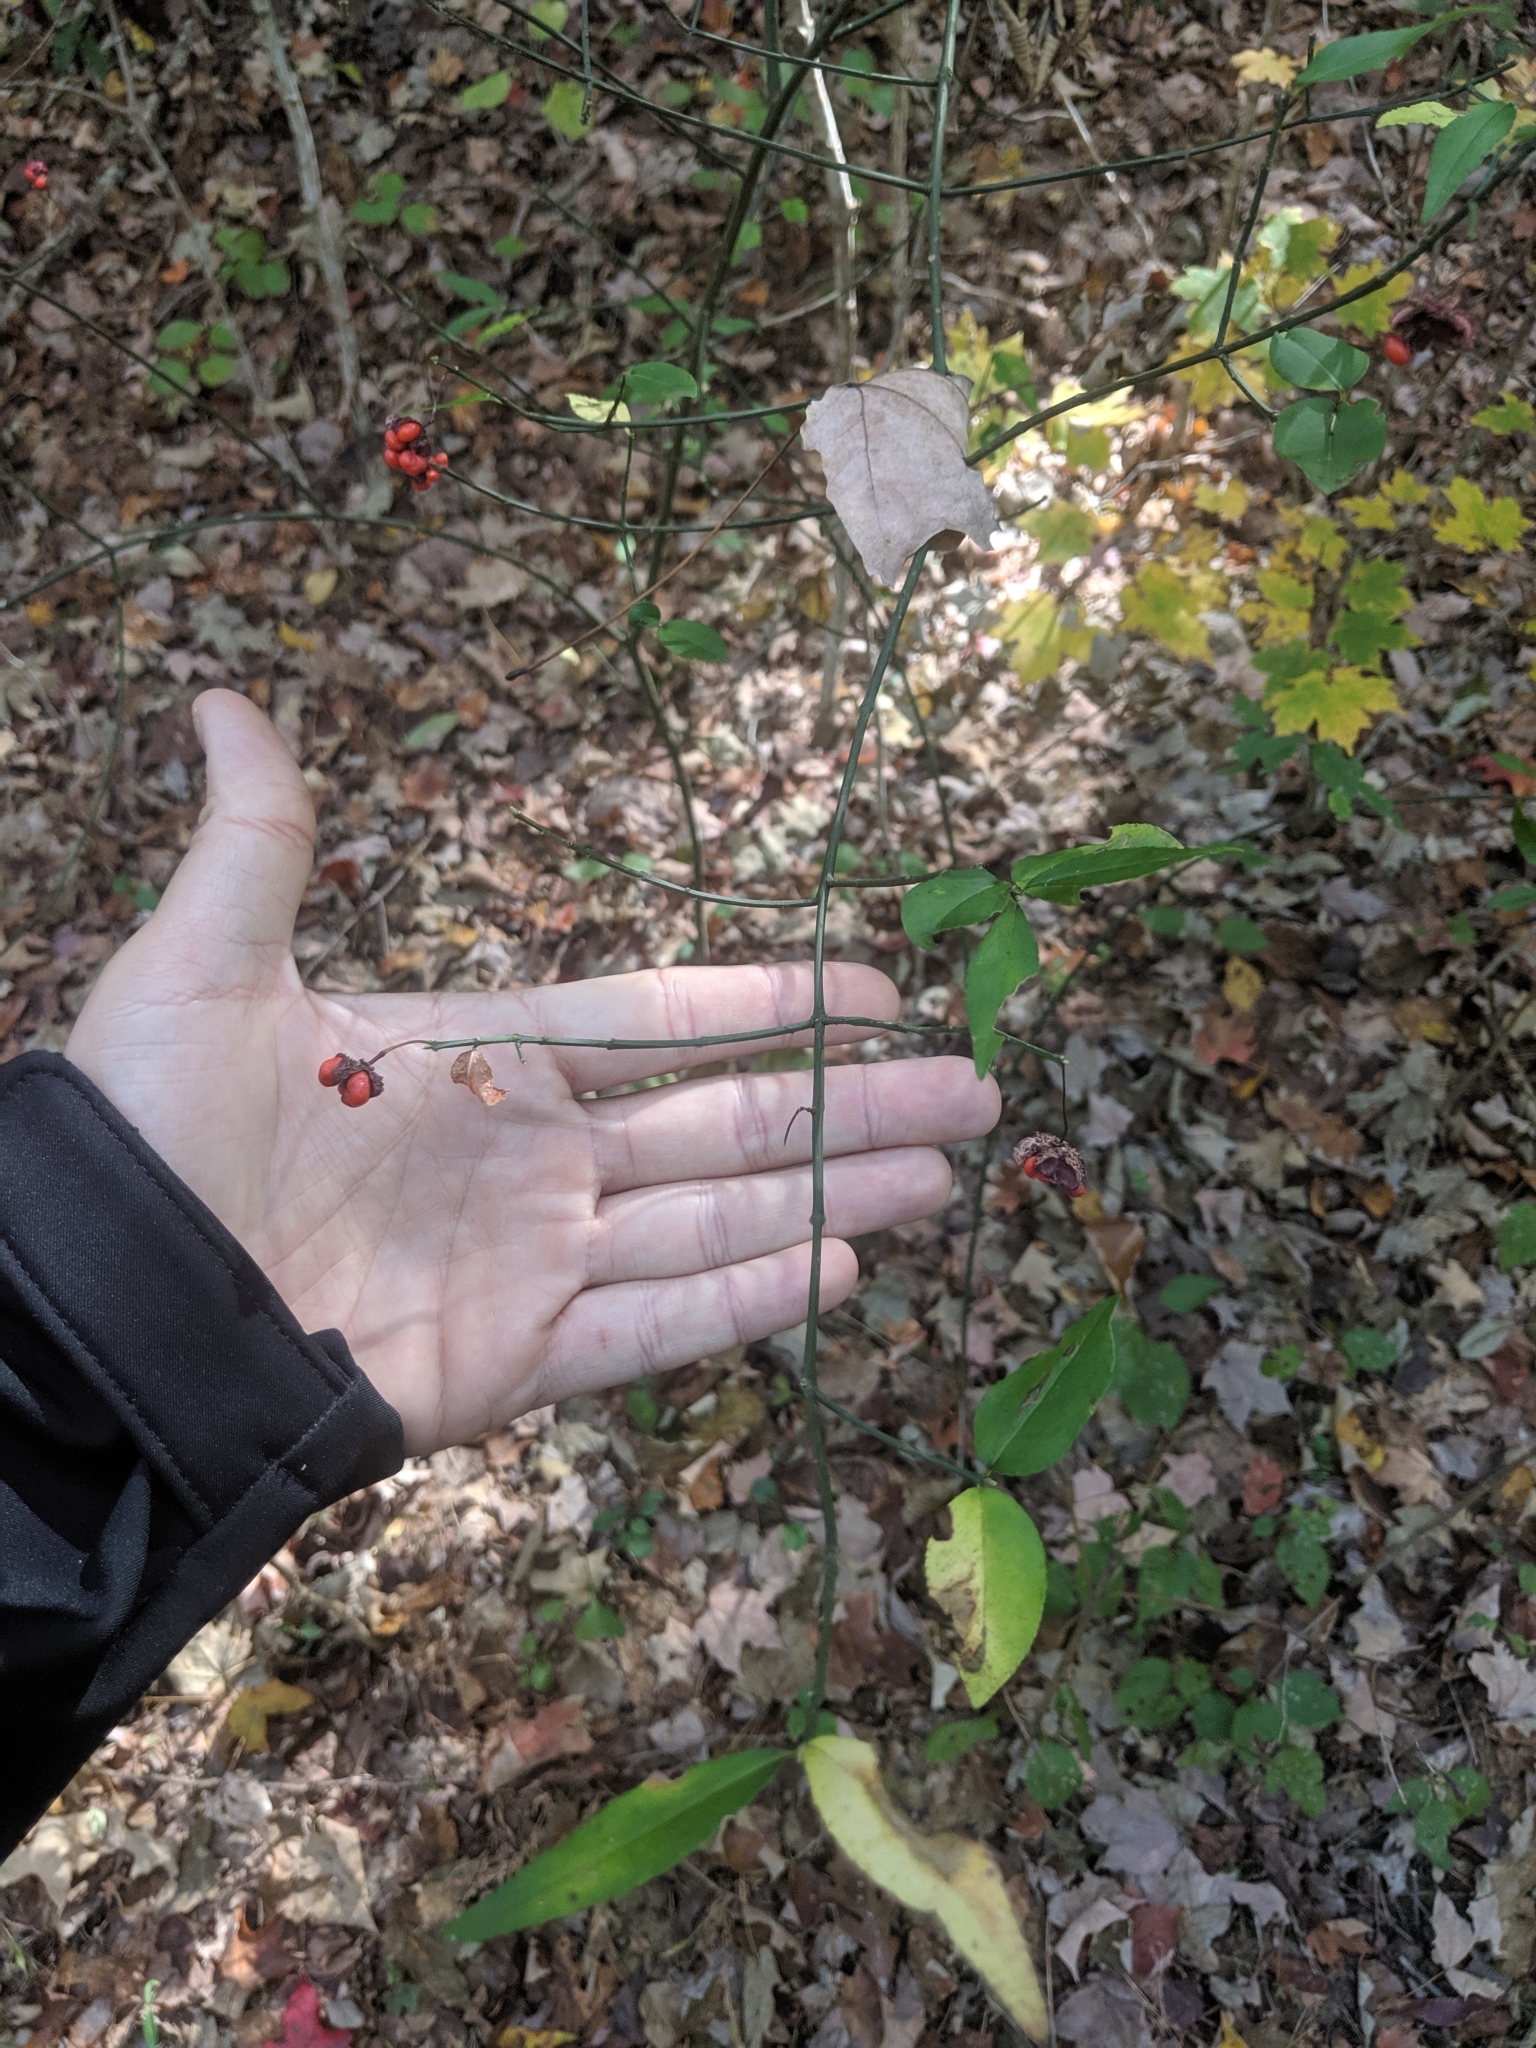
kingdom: Plantae
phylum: Tracheophyta
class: Magnoliopsida
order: Celastrales
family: Celastraceae
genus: Euonymus
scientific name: Euonymus americanus
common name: Bursting-heart
